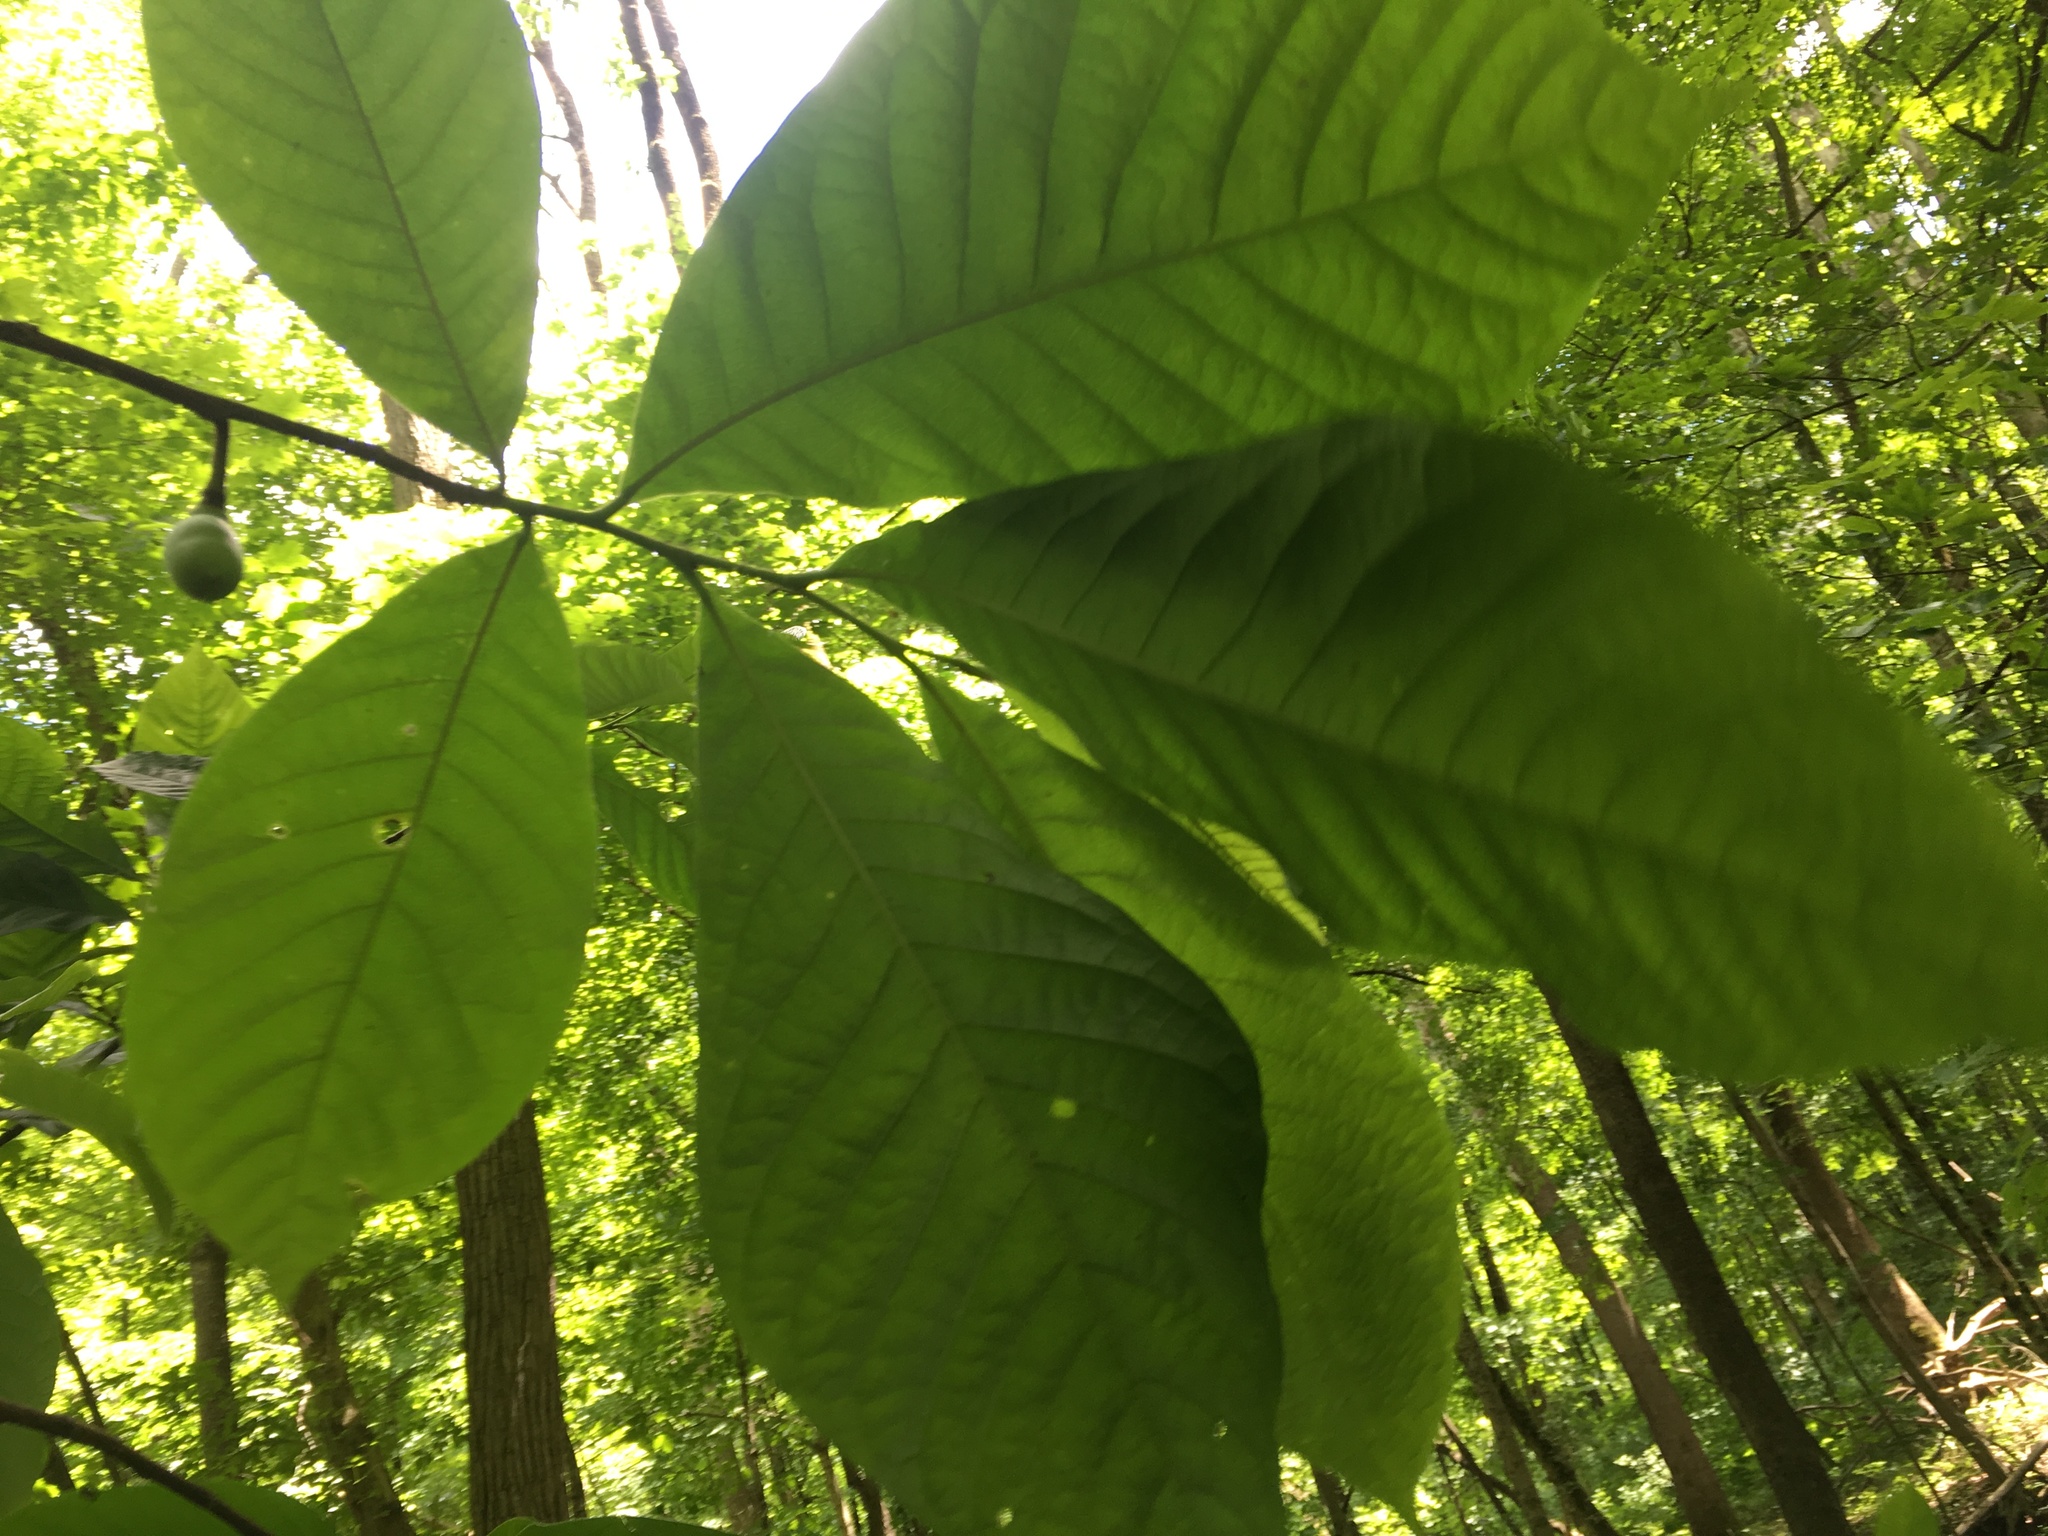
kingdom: Plantae
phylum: Tracheophyta
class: Magnoliopsida
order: Magnoliales
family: Annonaceae
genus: Asimina
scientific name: Asimina triloba
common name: Dog-banana
